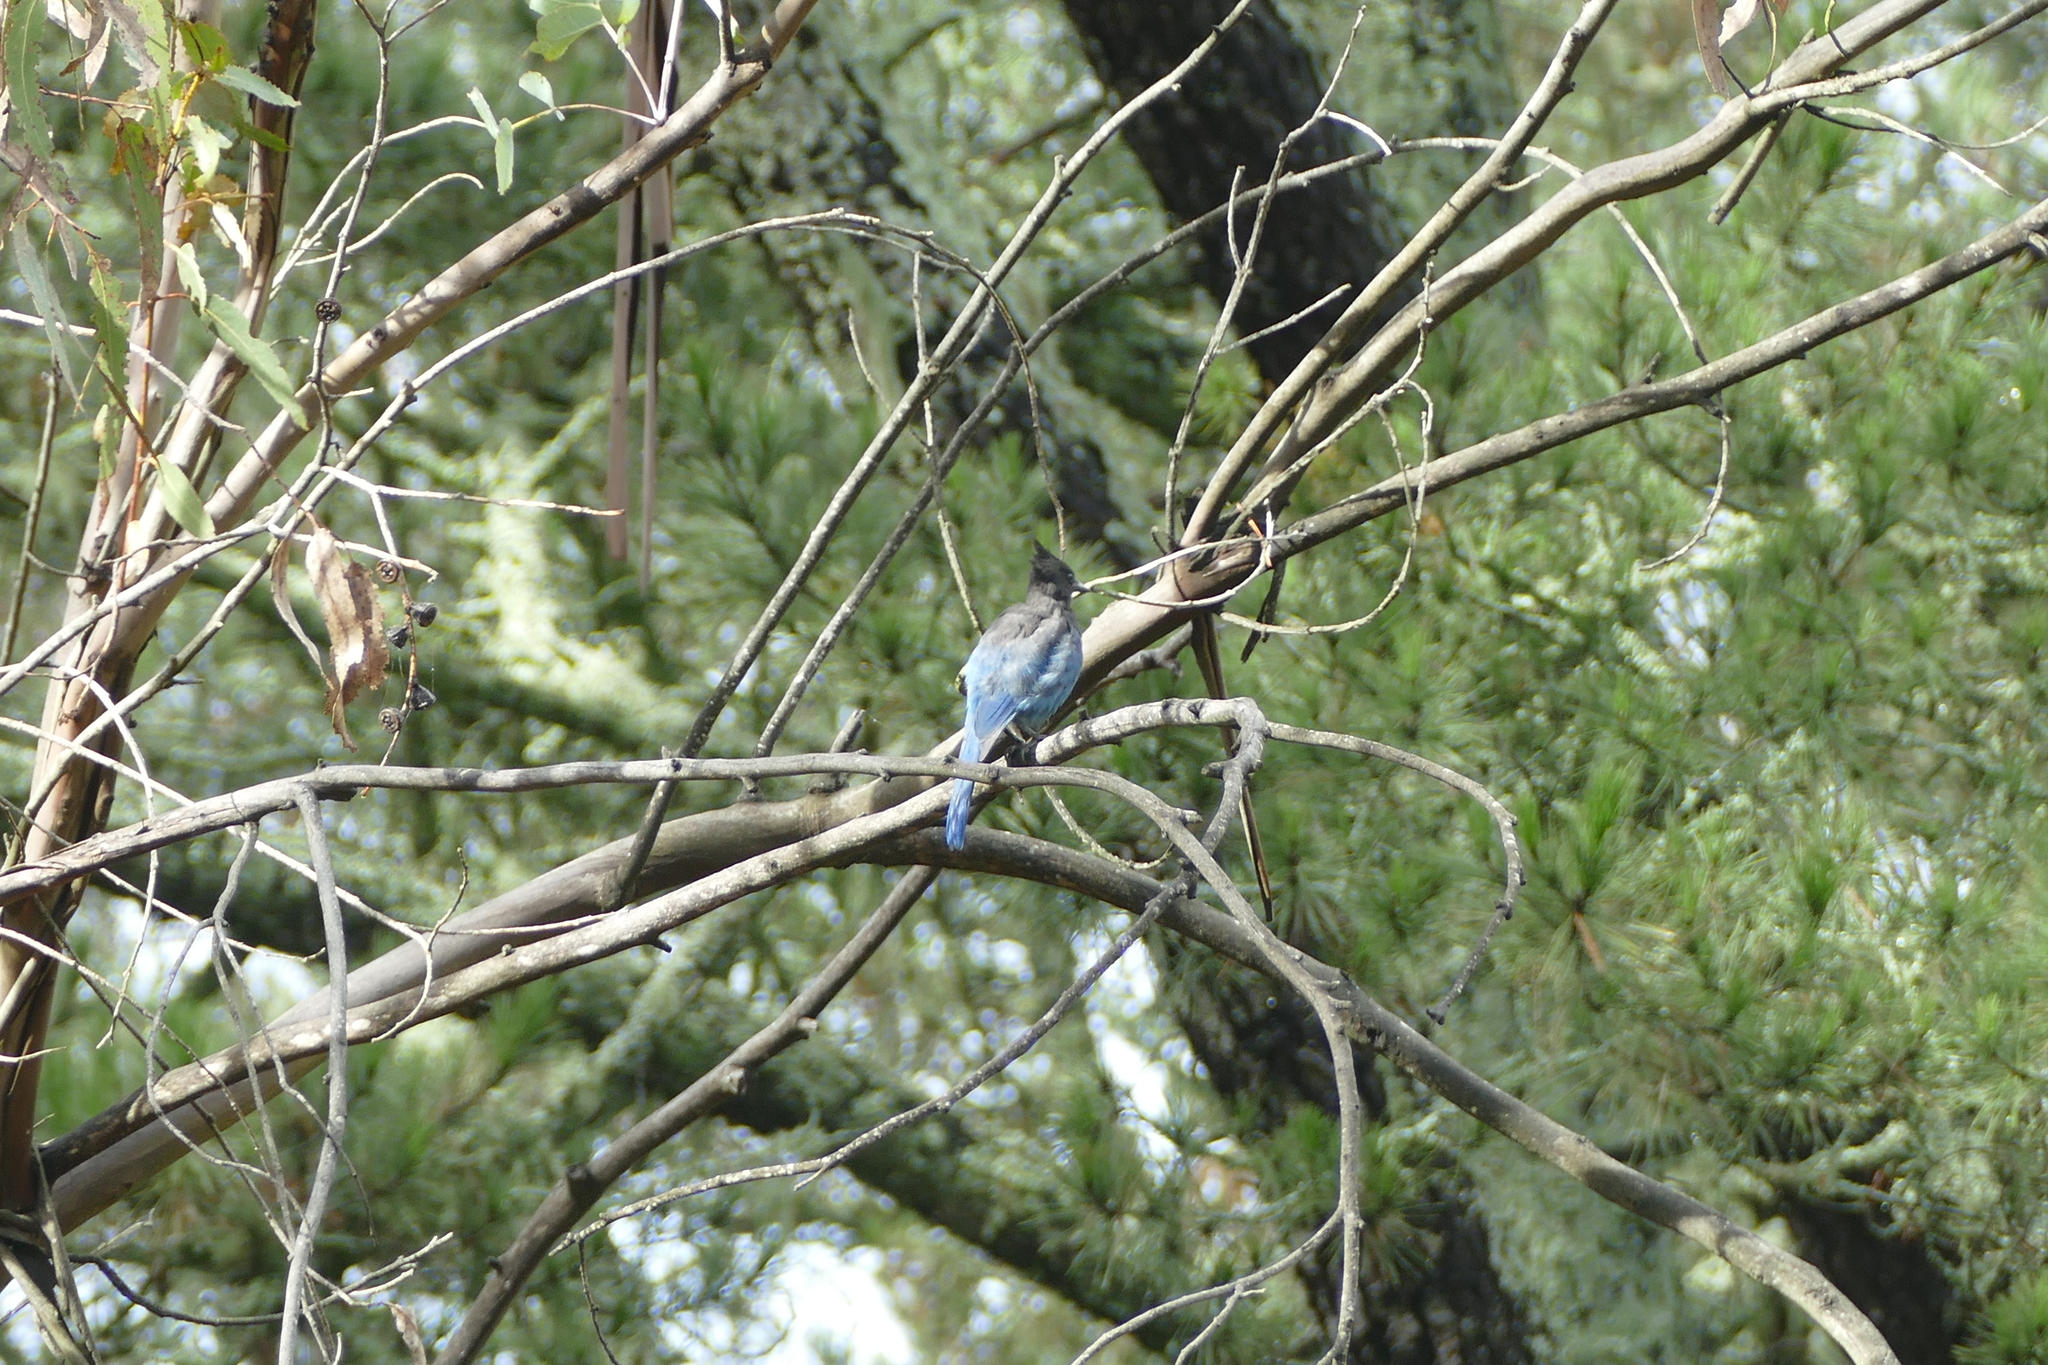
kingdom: Animalia
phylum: Chordata
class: Aves
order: Passeriformes
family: Corvidae
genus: Cyanocitta
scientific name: Cyanocitta stelleri
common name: Steller's jay
